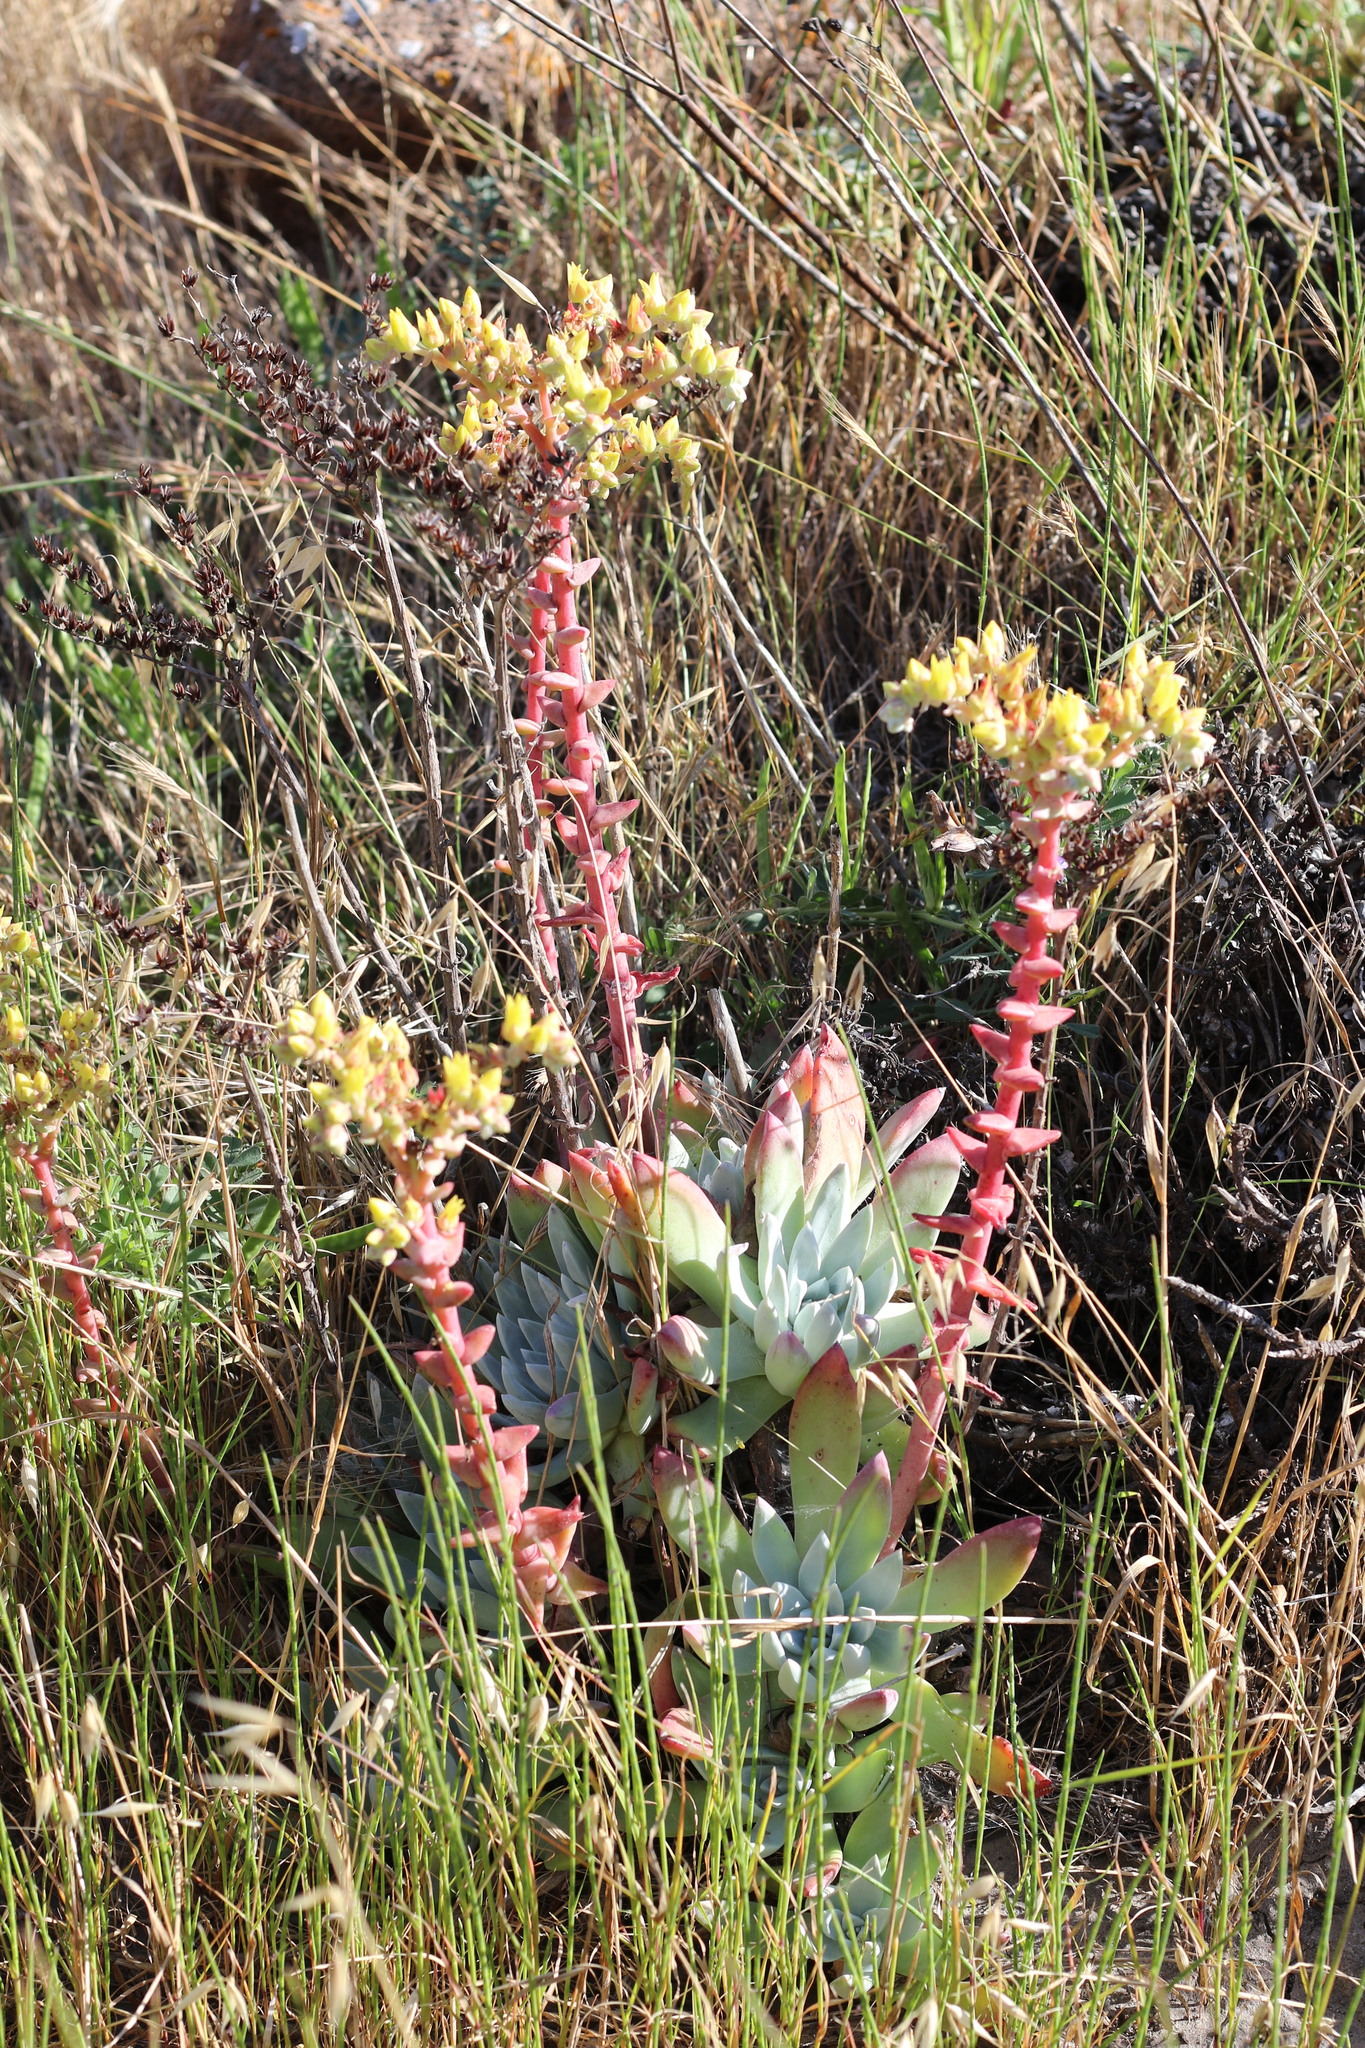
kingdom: Plantae
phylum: Tracheophyta
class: Magnoliopsida
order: Saxifragales
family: Crassulaceae
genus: Dudleya
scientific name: Dudleya greenei
